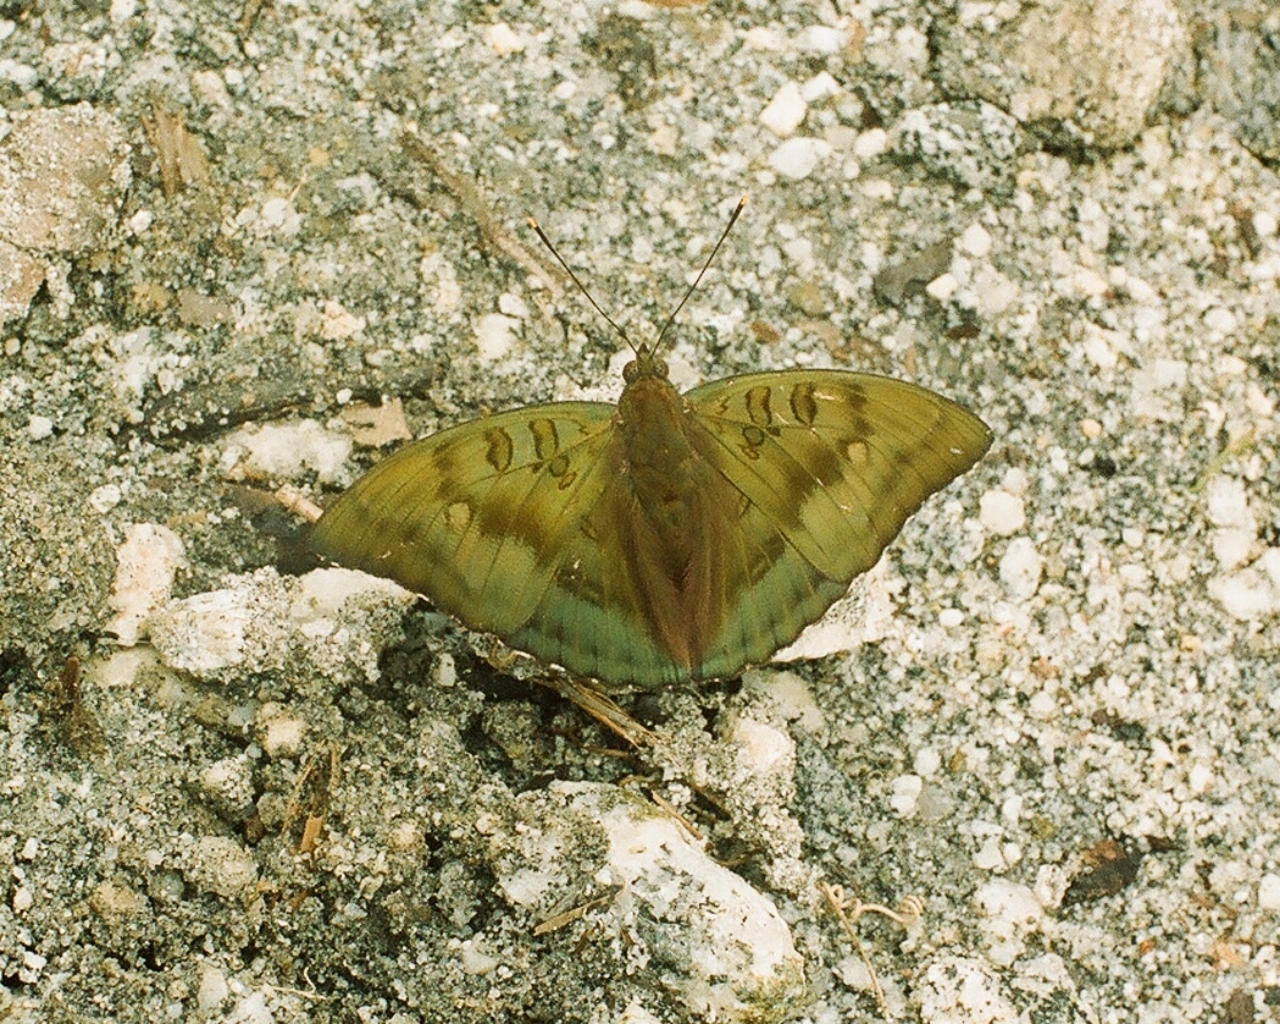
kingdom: Animalia
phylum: Arthropoda
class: Insecta
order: Lepidoptera
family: Nymphalidae
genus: Euthalia
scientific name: Euthalia nara
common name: Bronze duke
